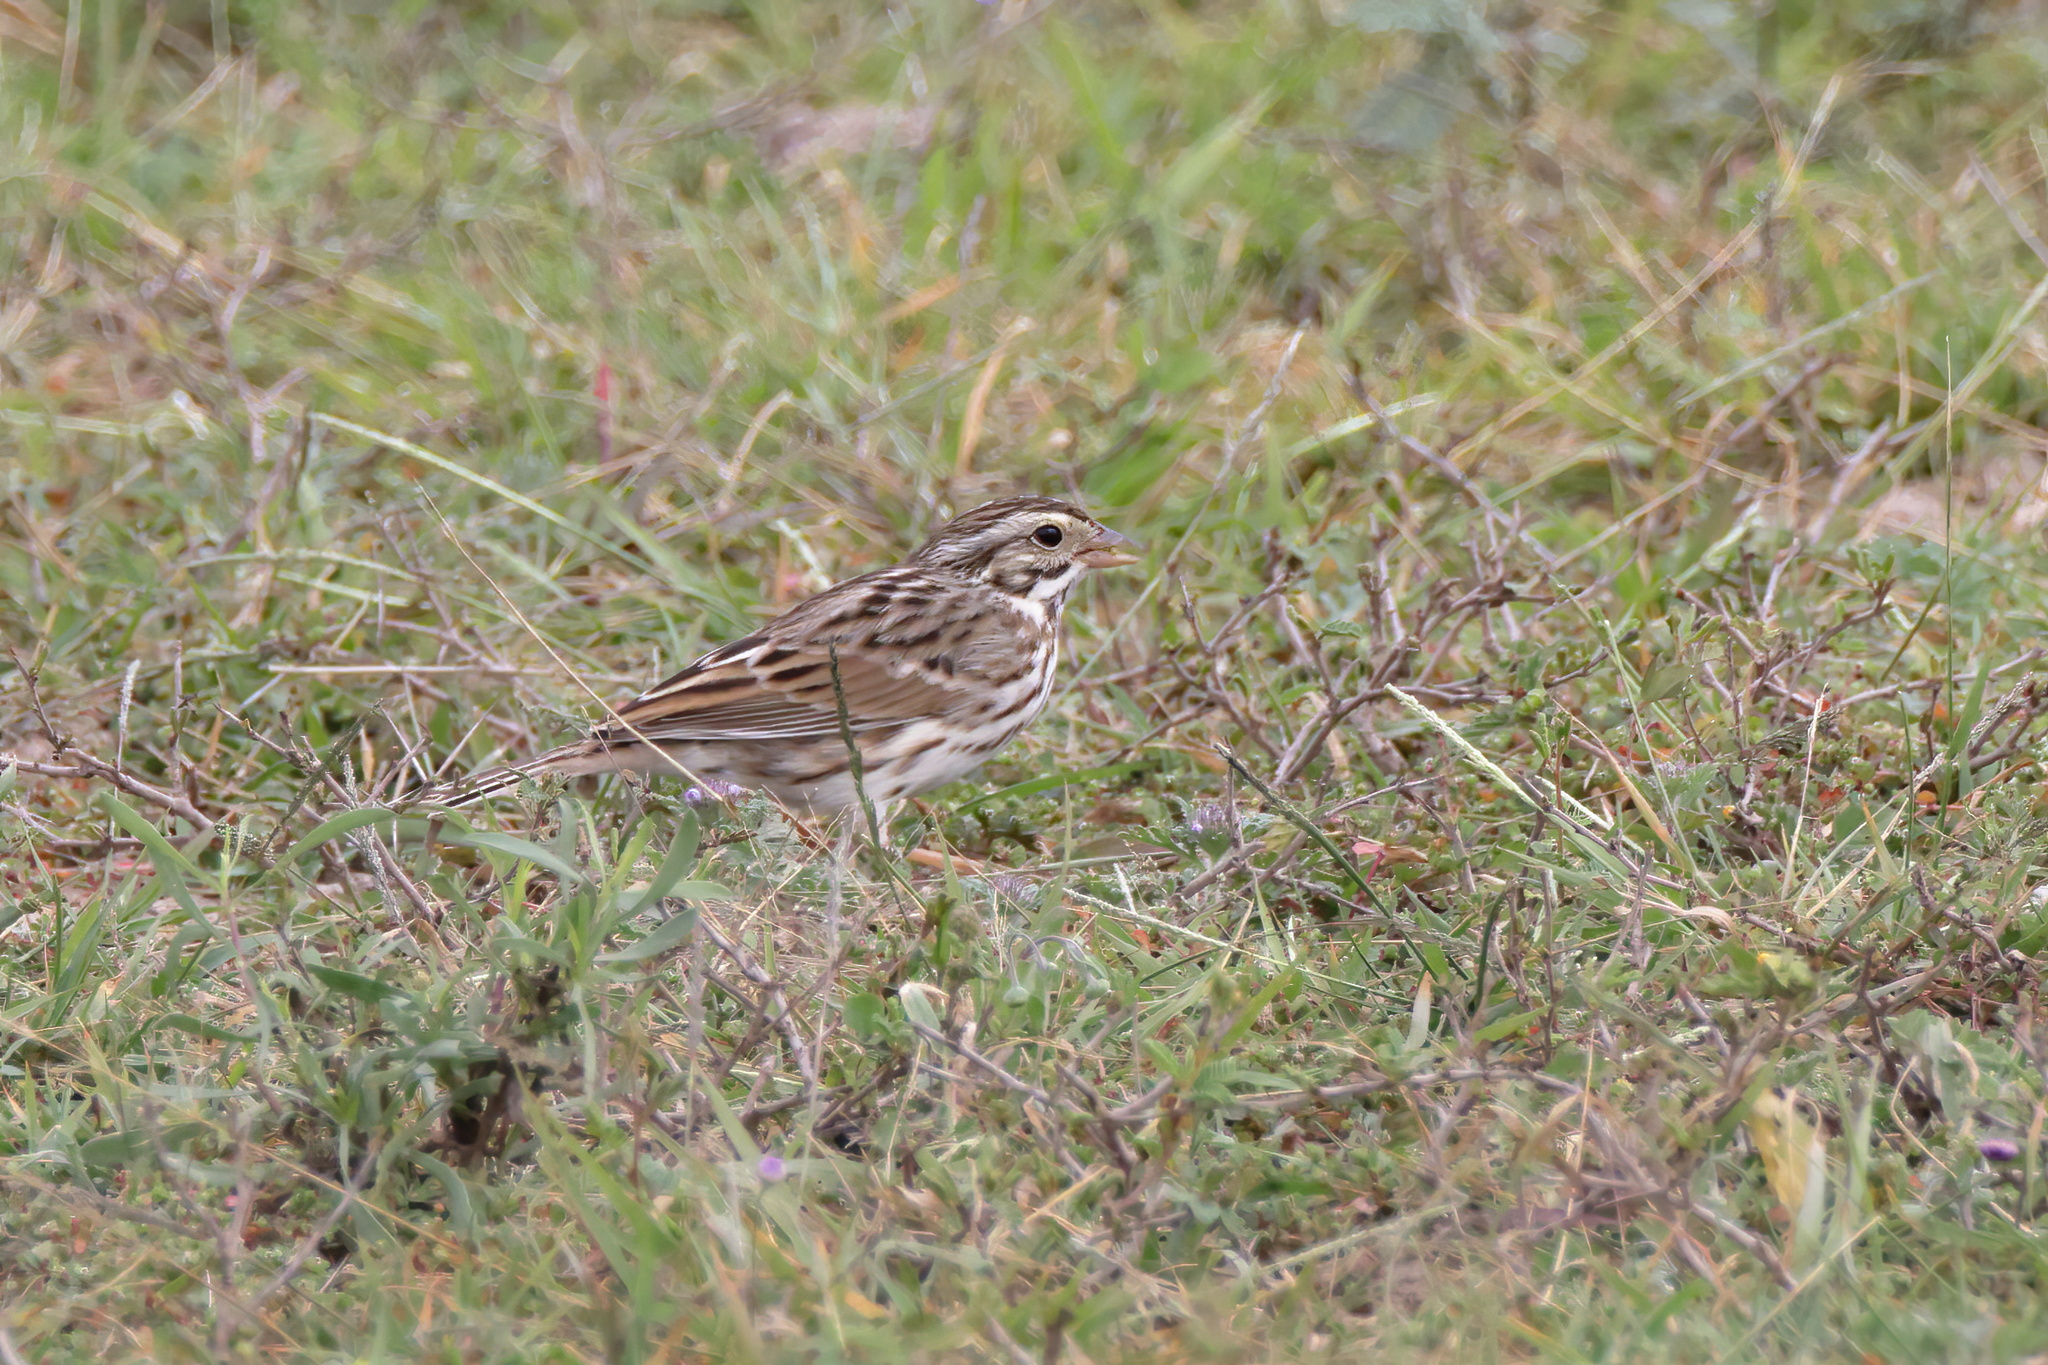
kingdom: Animalia
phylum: Chordata
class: Aves
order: Passeriformes
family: Passerellidae
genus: Passerculus
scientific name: Passerculus sandwichensis
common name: Savannah sparrow
